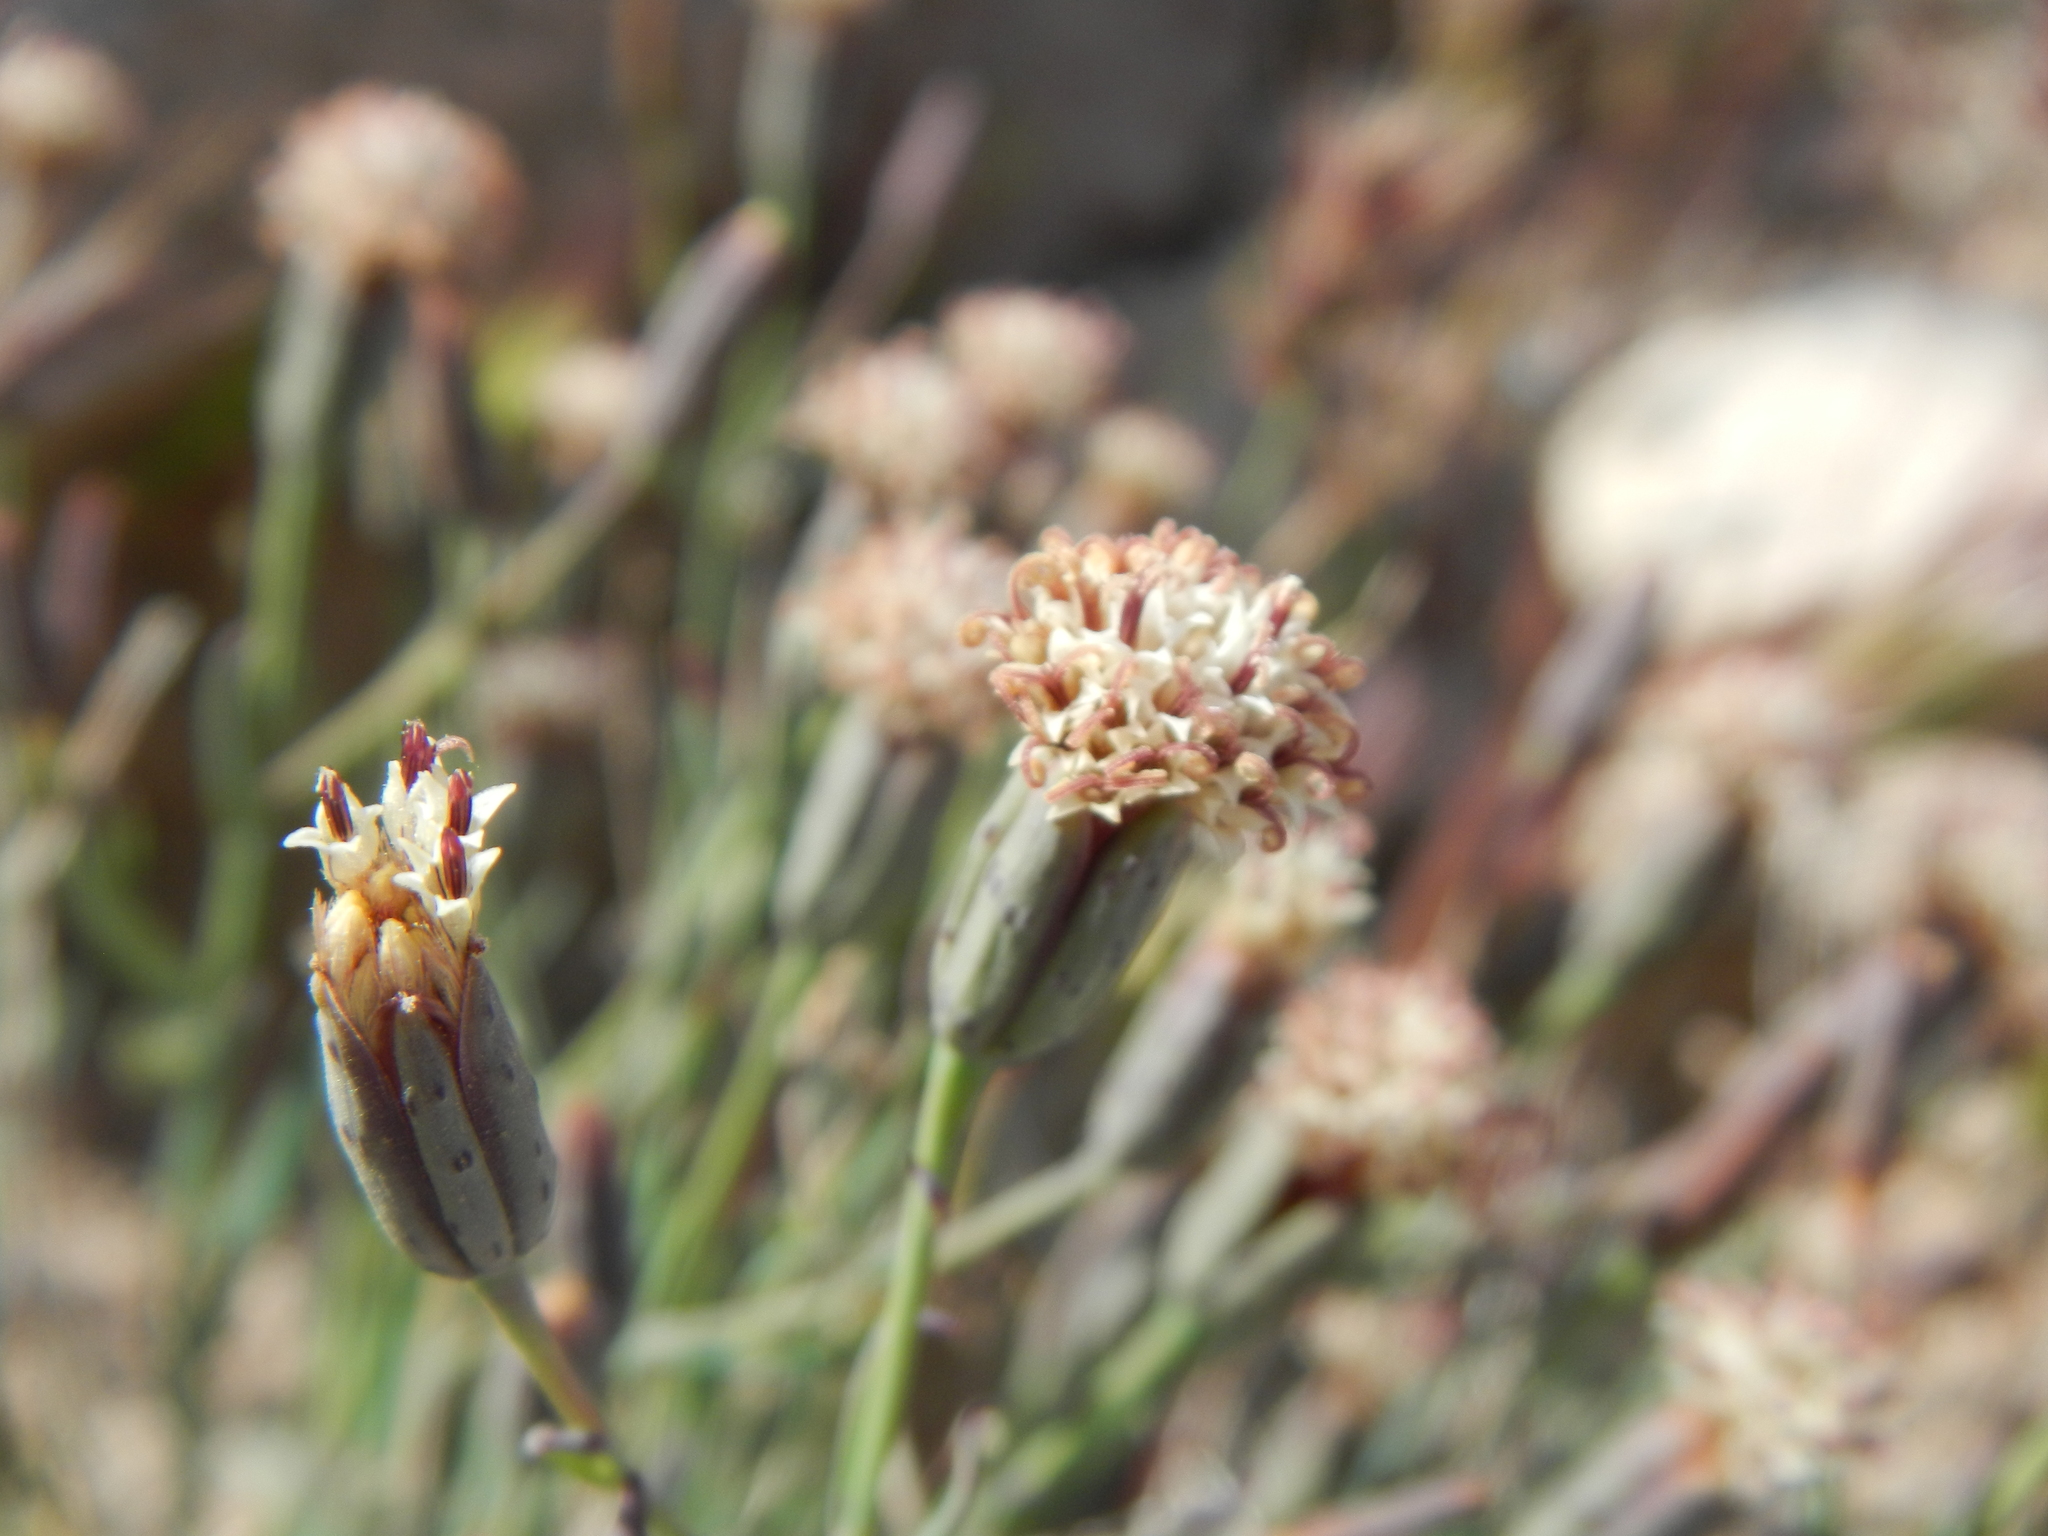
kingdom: Plantae
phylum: Tracheophyta
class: Magnoliopsida
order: Asterales
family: Asteraceae
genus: Porophyllum
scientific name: Porophyllum gracile
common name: Odora
